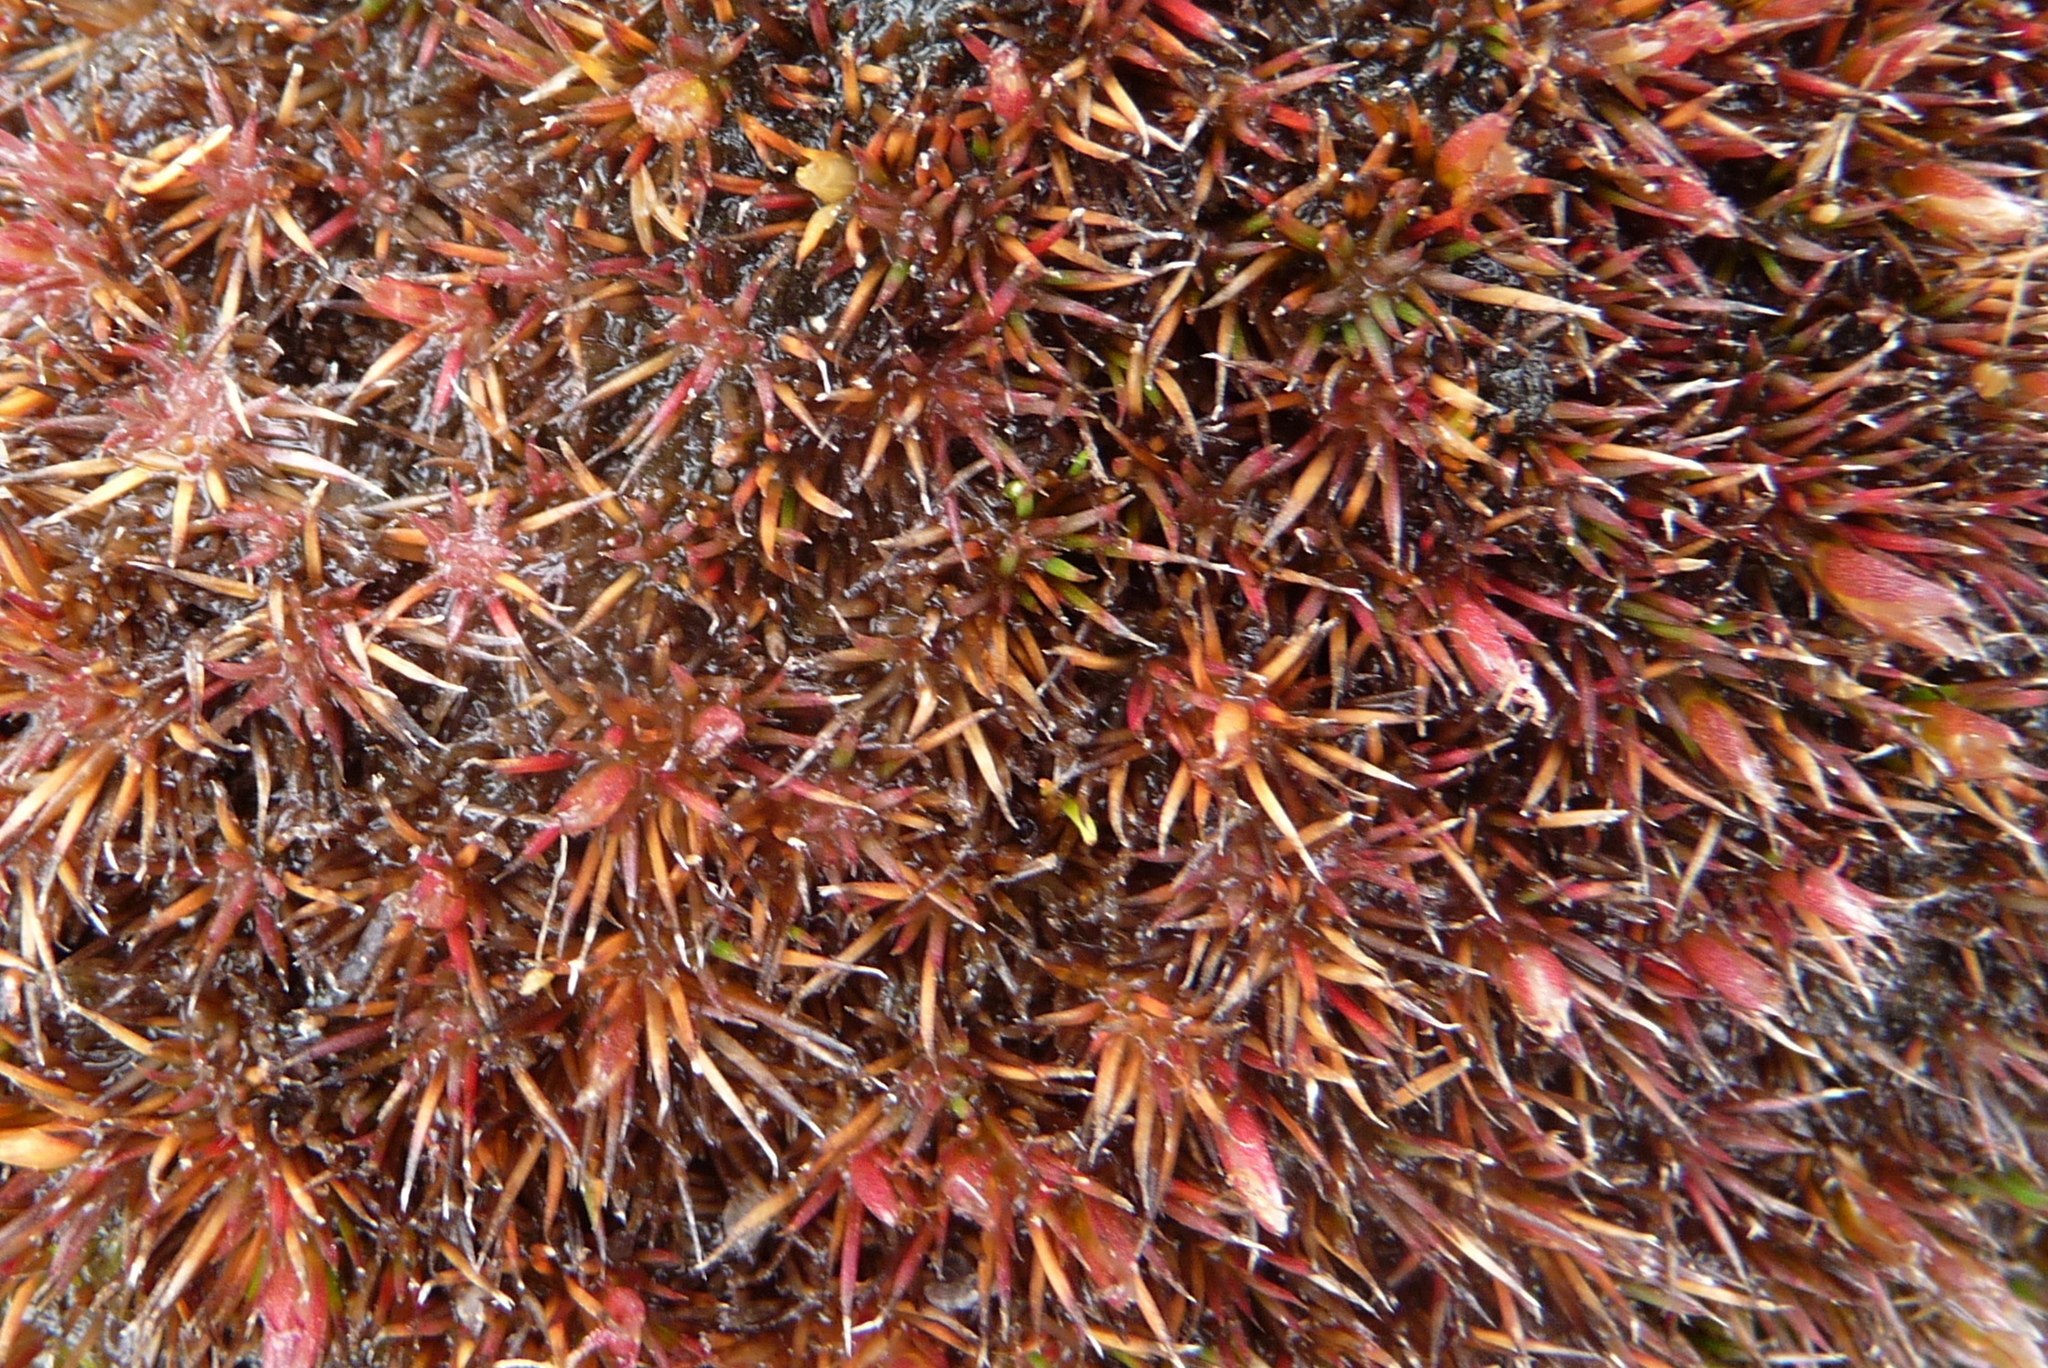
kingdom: Plantae
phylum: Tracheophyta
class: Liliopsida
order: Poales
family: Restionaceae
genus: Centrolepis
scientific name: Centrolepis ciliata
